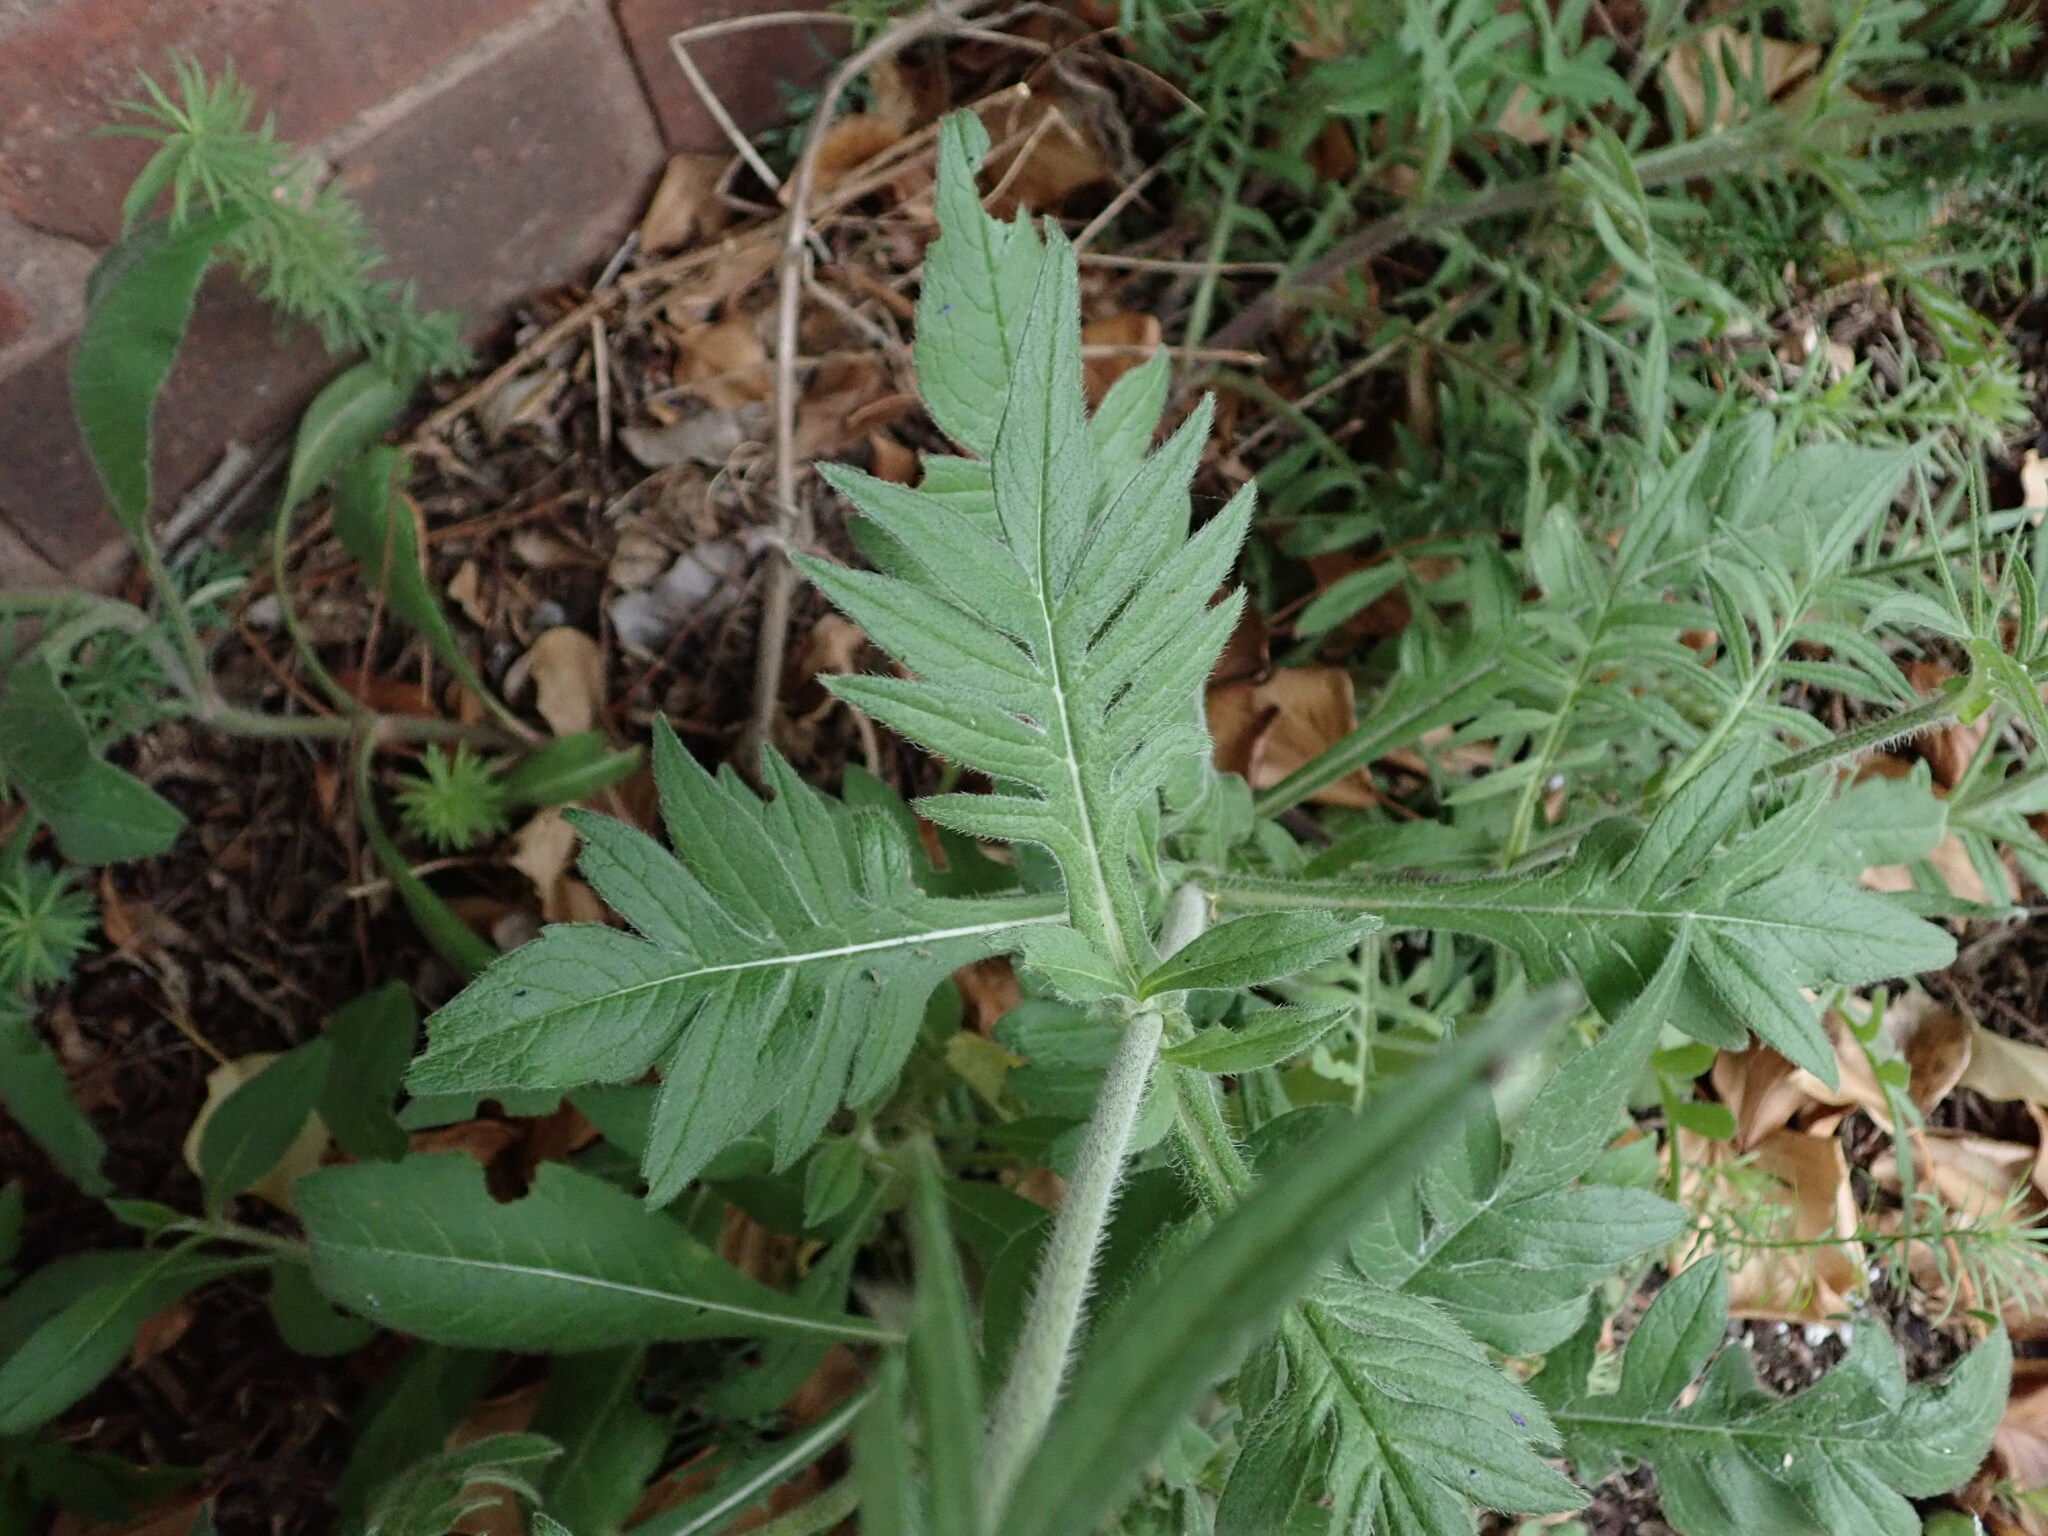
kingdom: Plantae
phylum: Tracheophyta
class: Magnoliopsida
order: Dipsacales
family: Caprifoliaceae
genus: Knautia
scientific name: Knautia arvensis
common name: Field scabiosa
